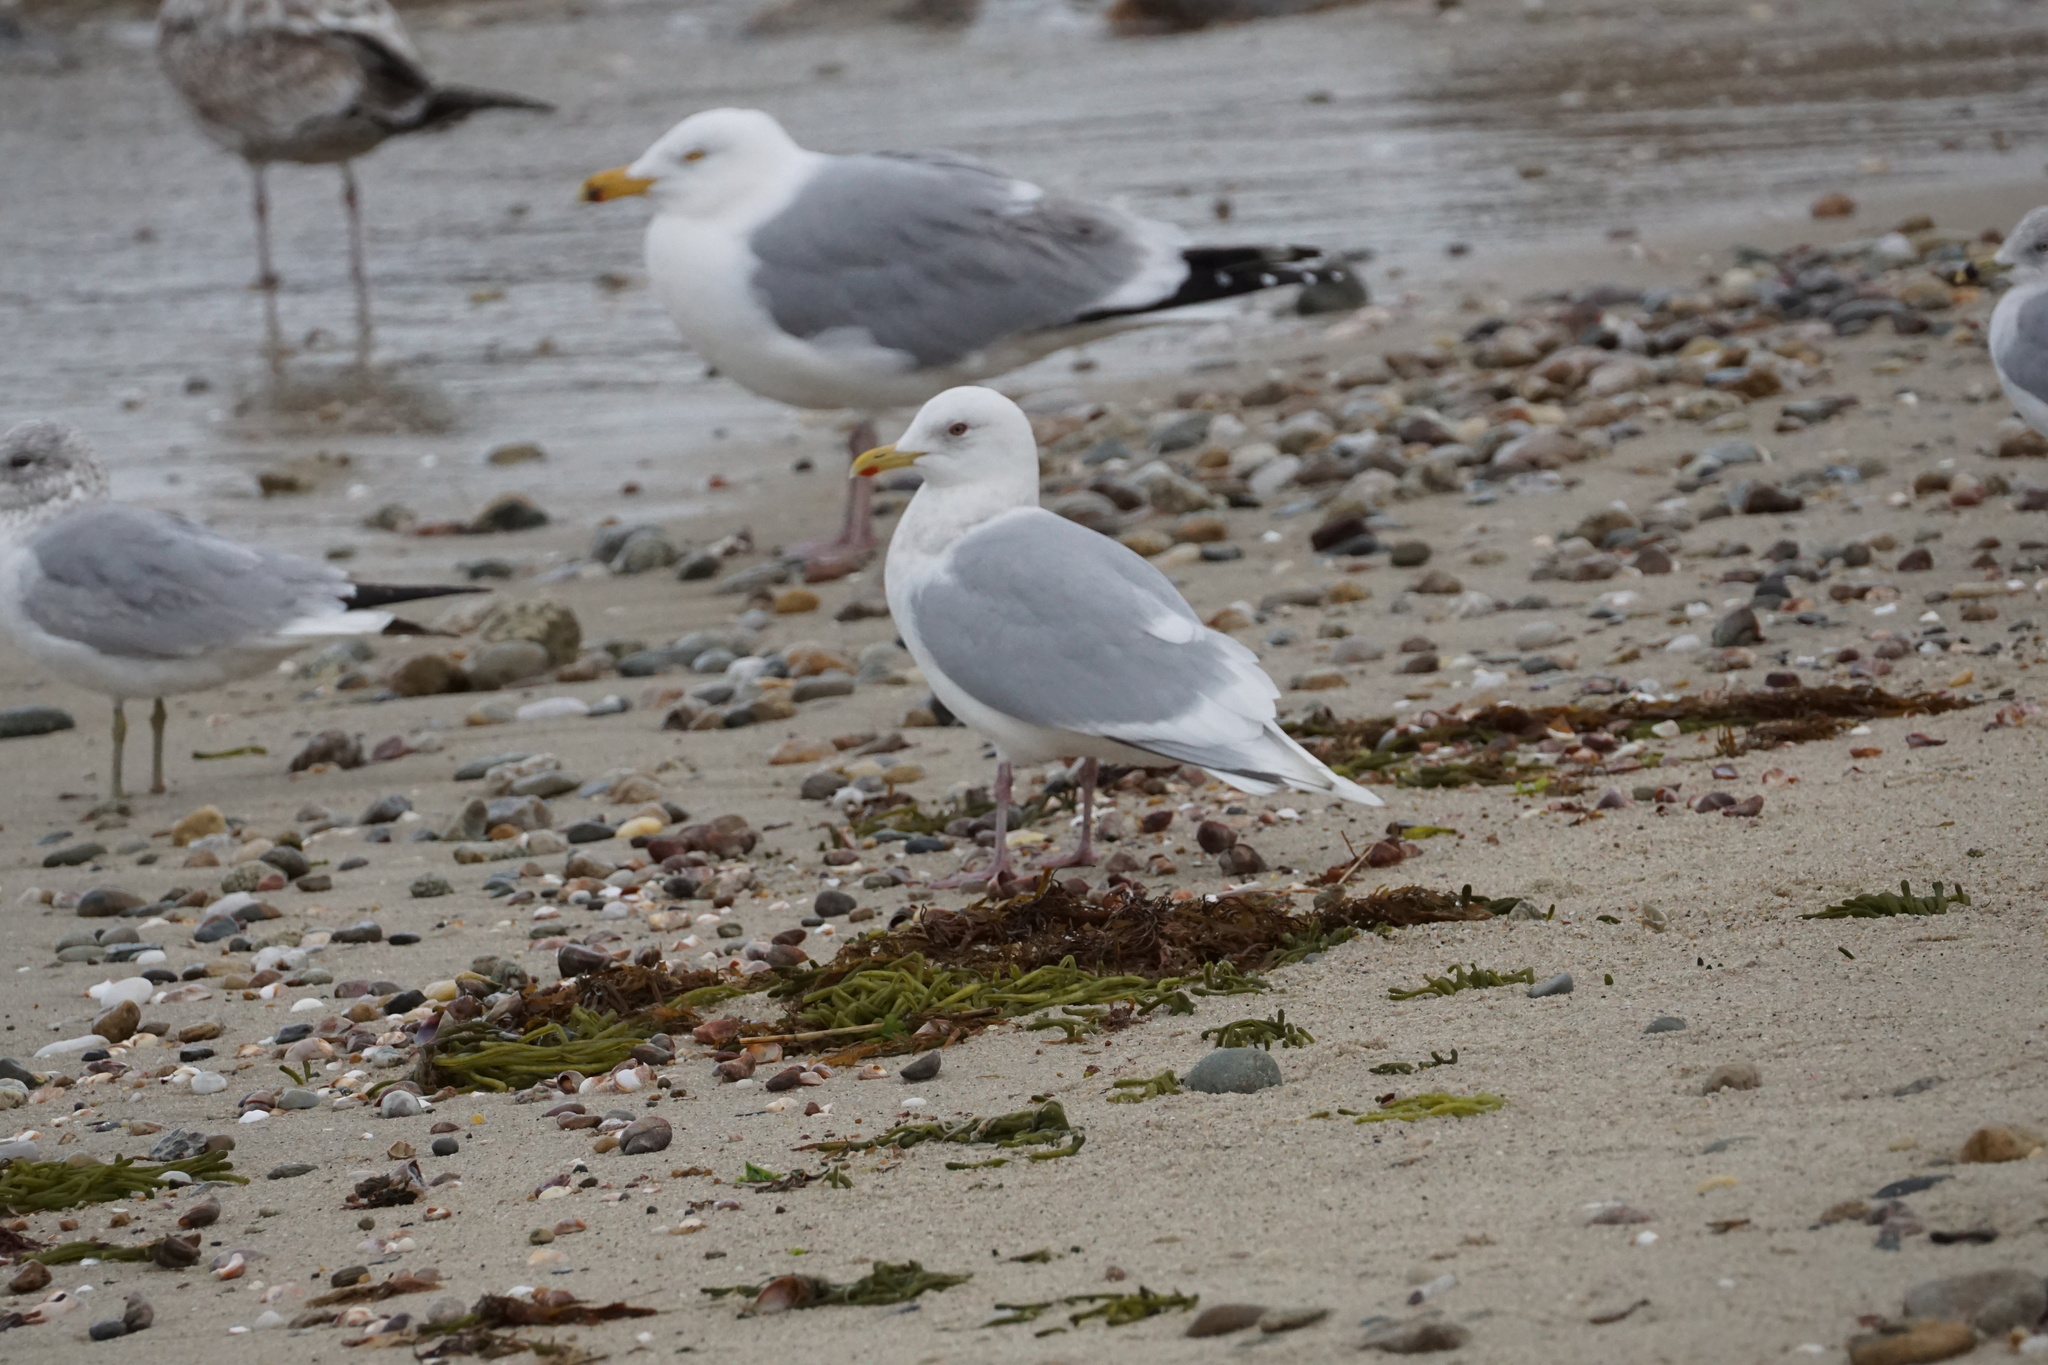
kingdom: Animalia
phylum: Chordata
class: Aves
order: Charadriiformes
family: Laridae
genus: Larus
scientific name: Larus glaucoides
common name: Iceland gull
